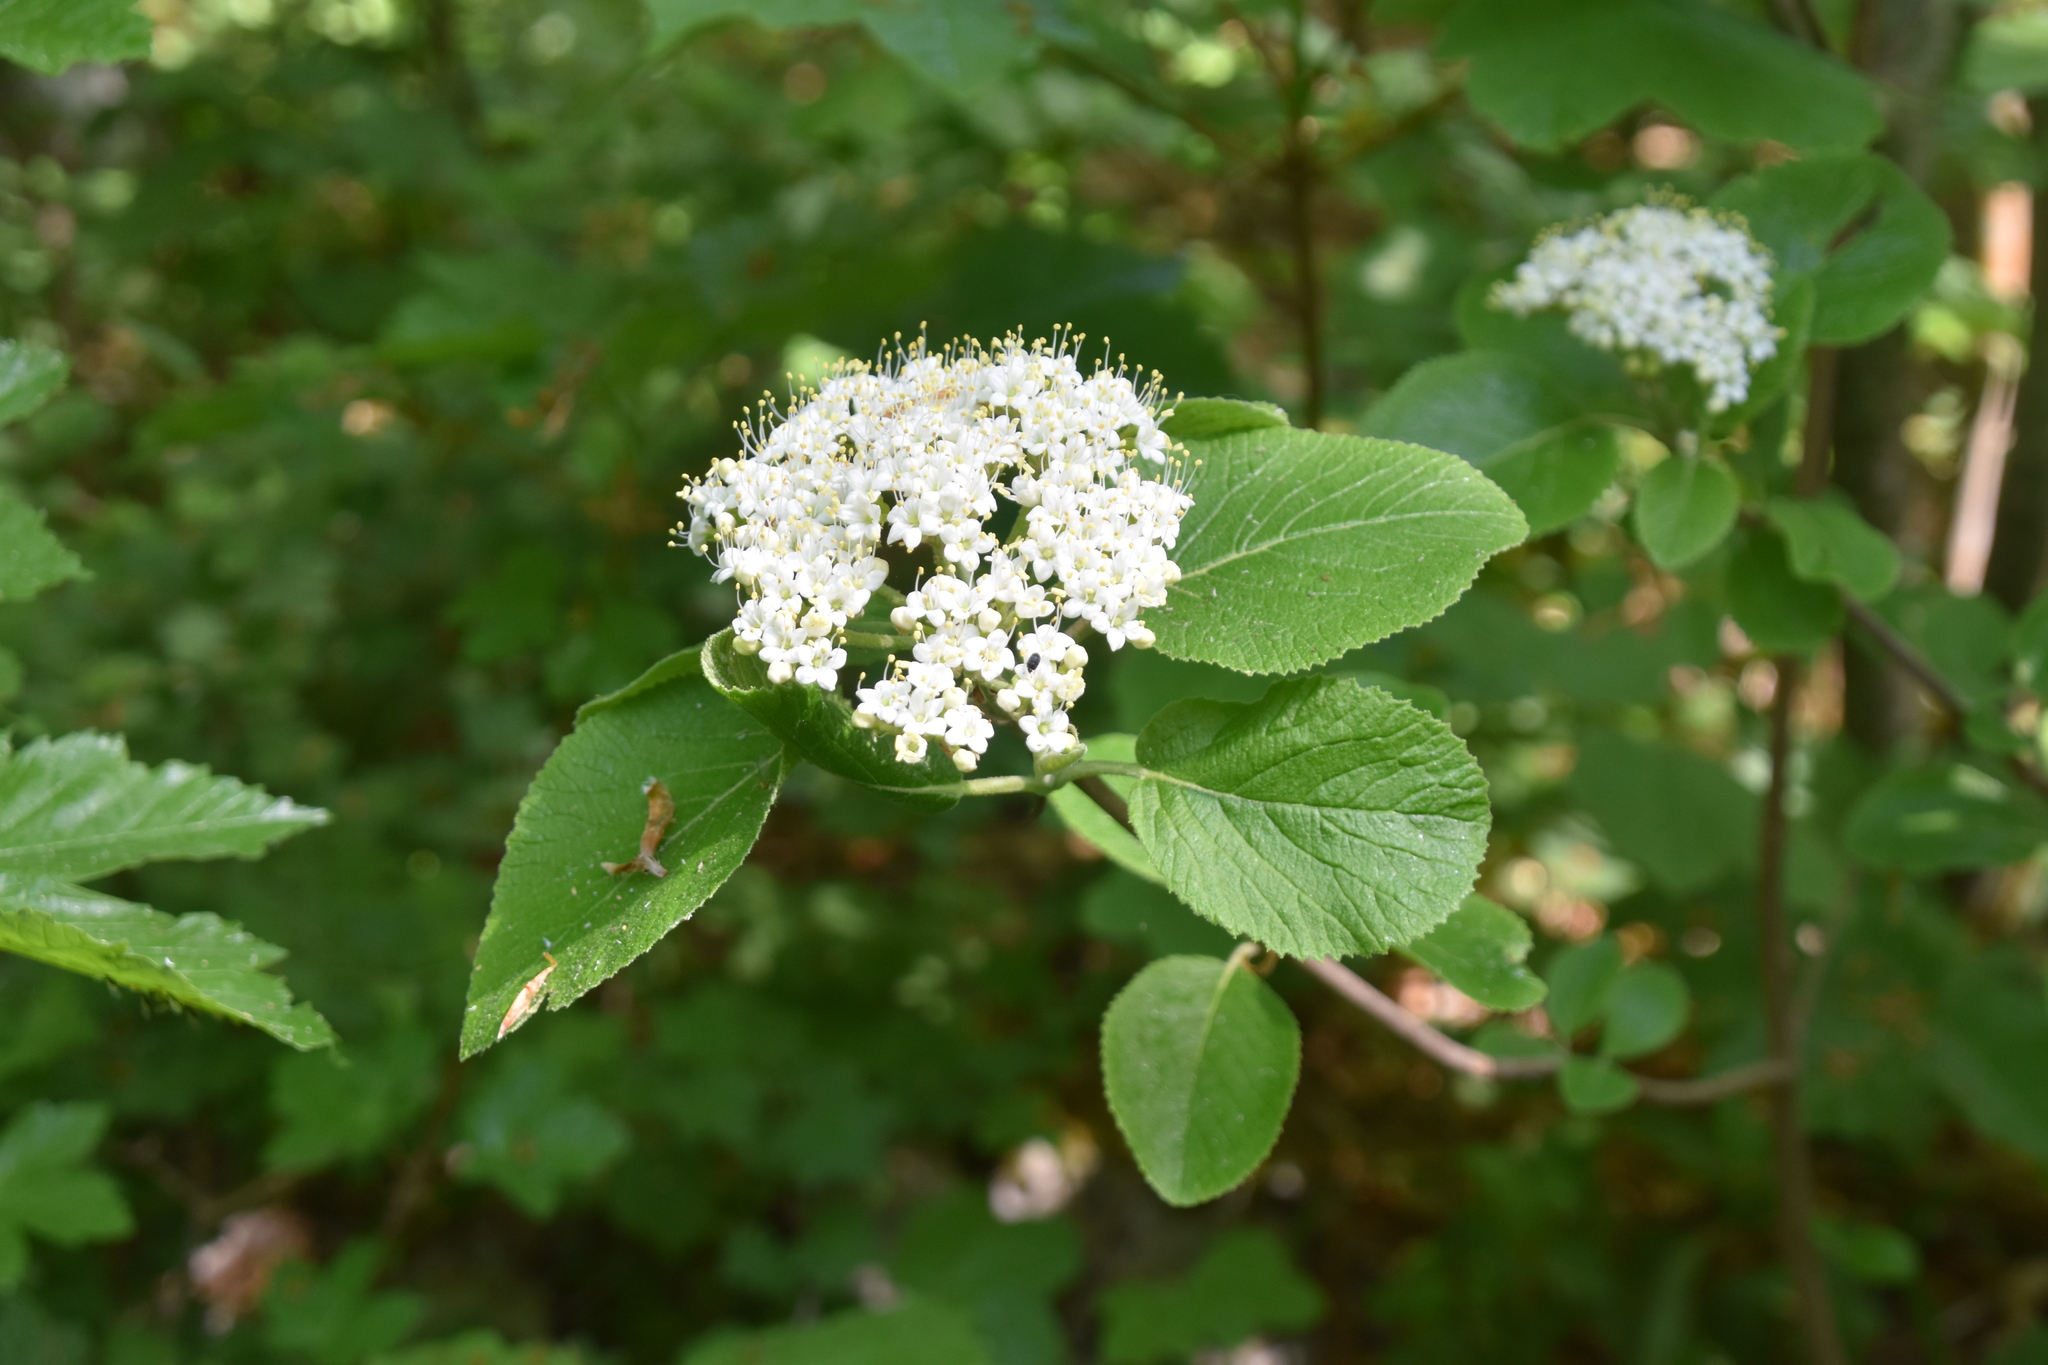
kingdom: Plantae
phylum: Tracheophyta
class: Magnoliopsida
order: Dipsacales
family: Viburnaceae
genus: Viburnum
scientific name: Viburnum lantana
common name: Wayfaring tree
